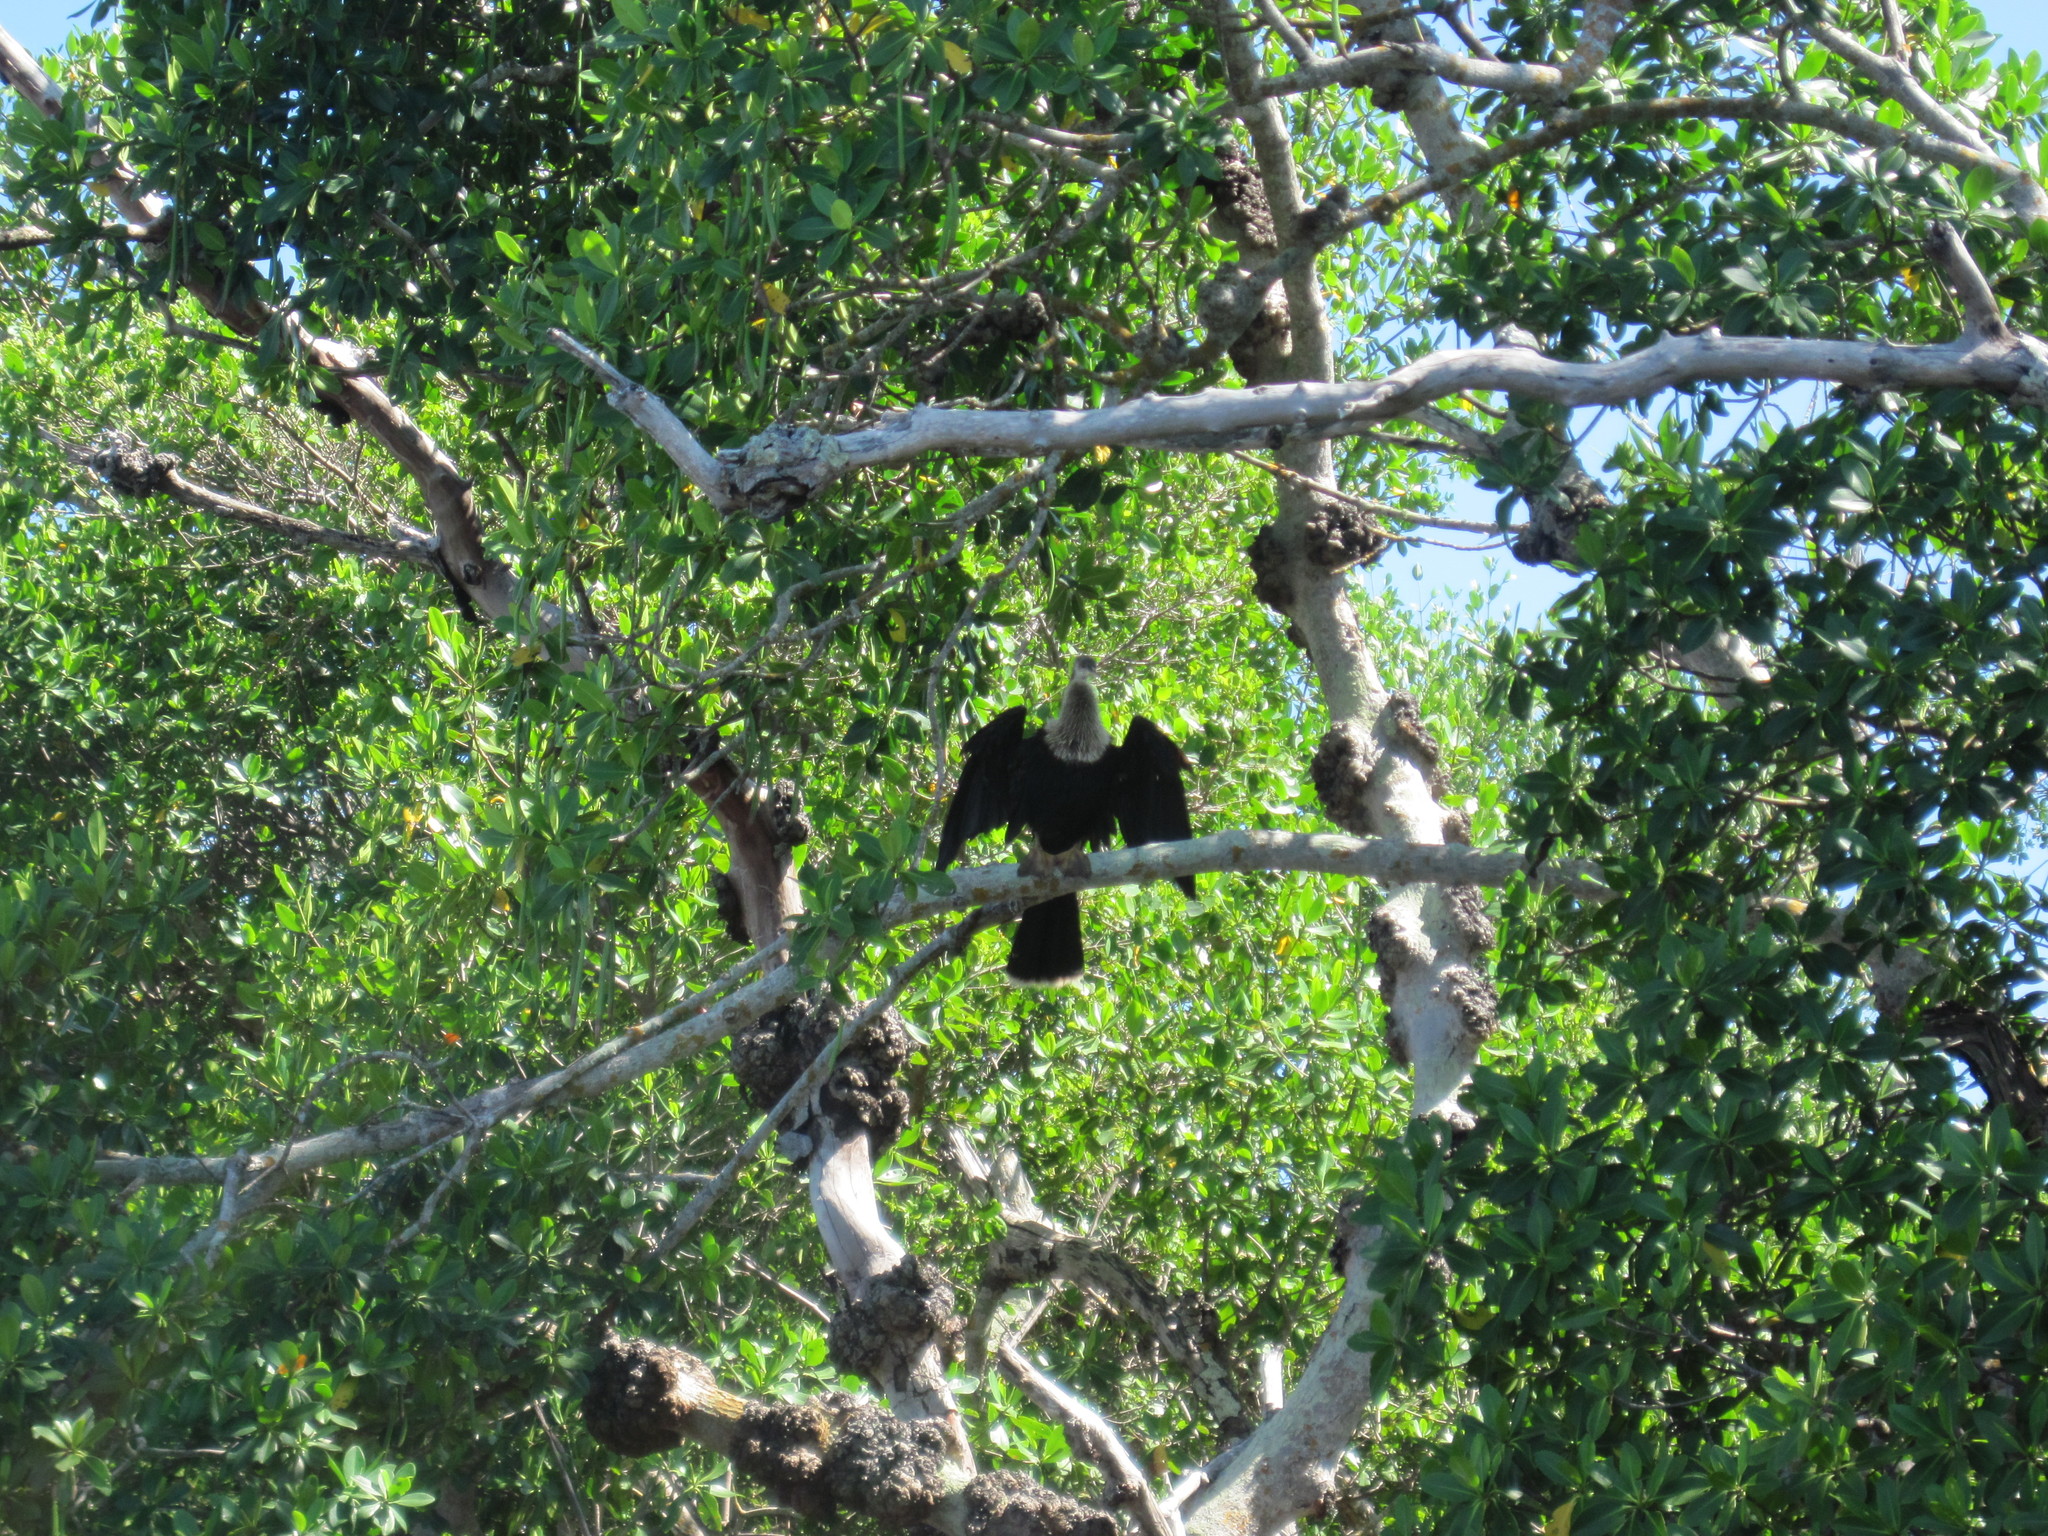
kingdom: Animalia
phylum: Chordata
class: Aves
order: Suliformes
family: Anhingidae
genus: Anhinga
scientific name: Anhinga anhinga
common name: Anhinga
